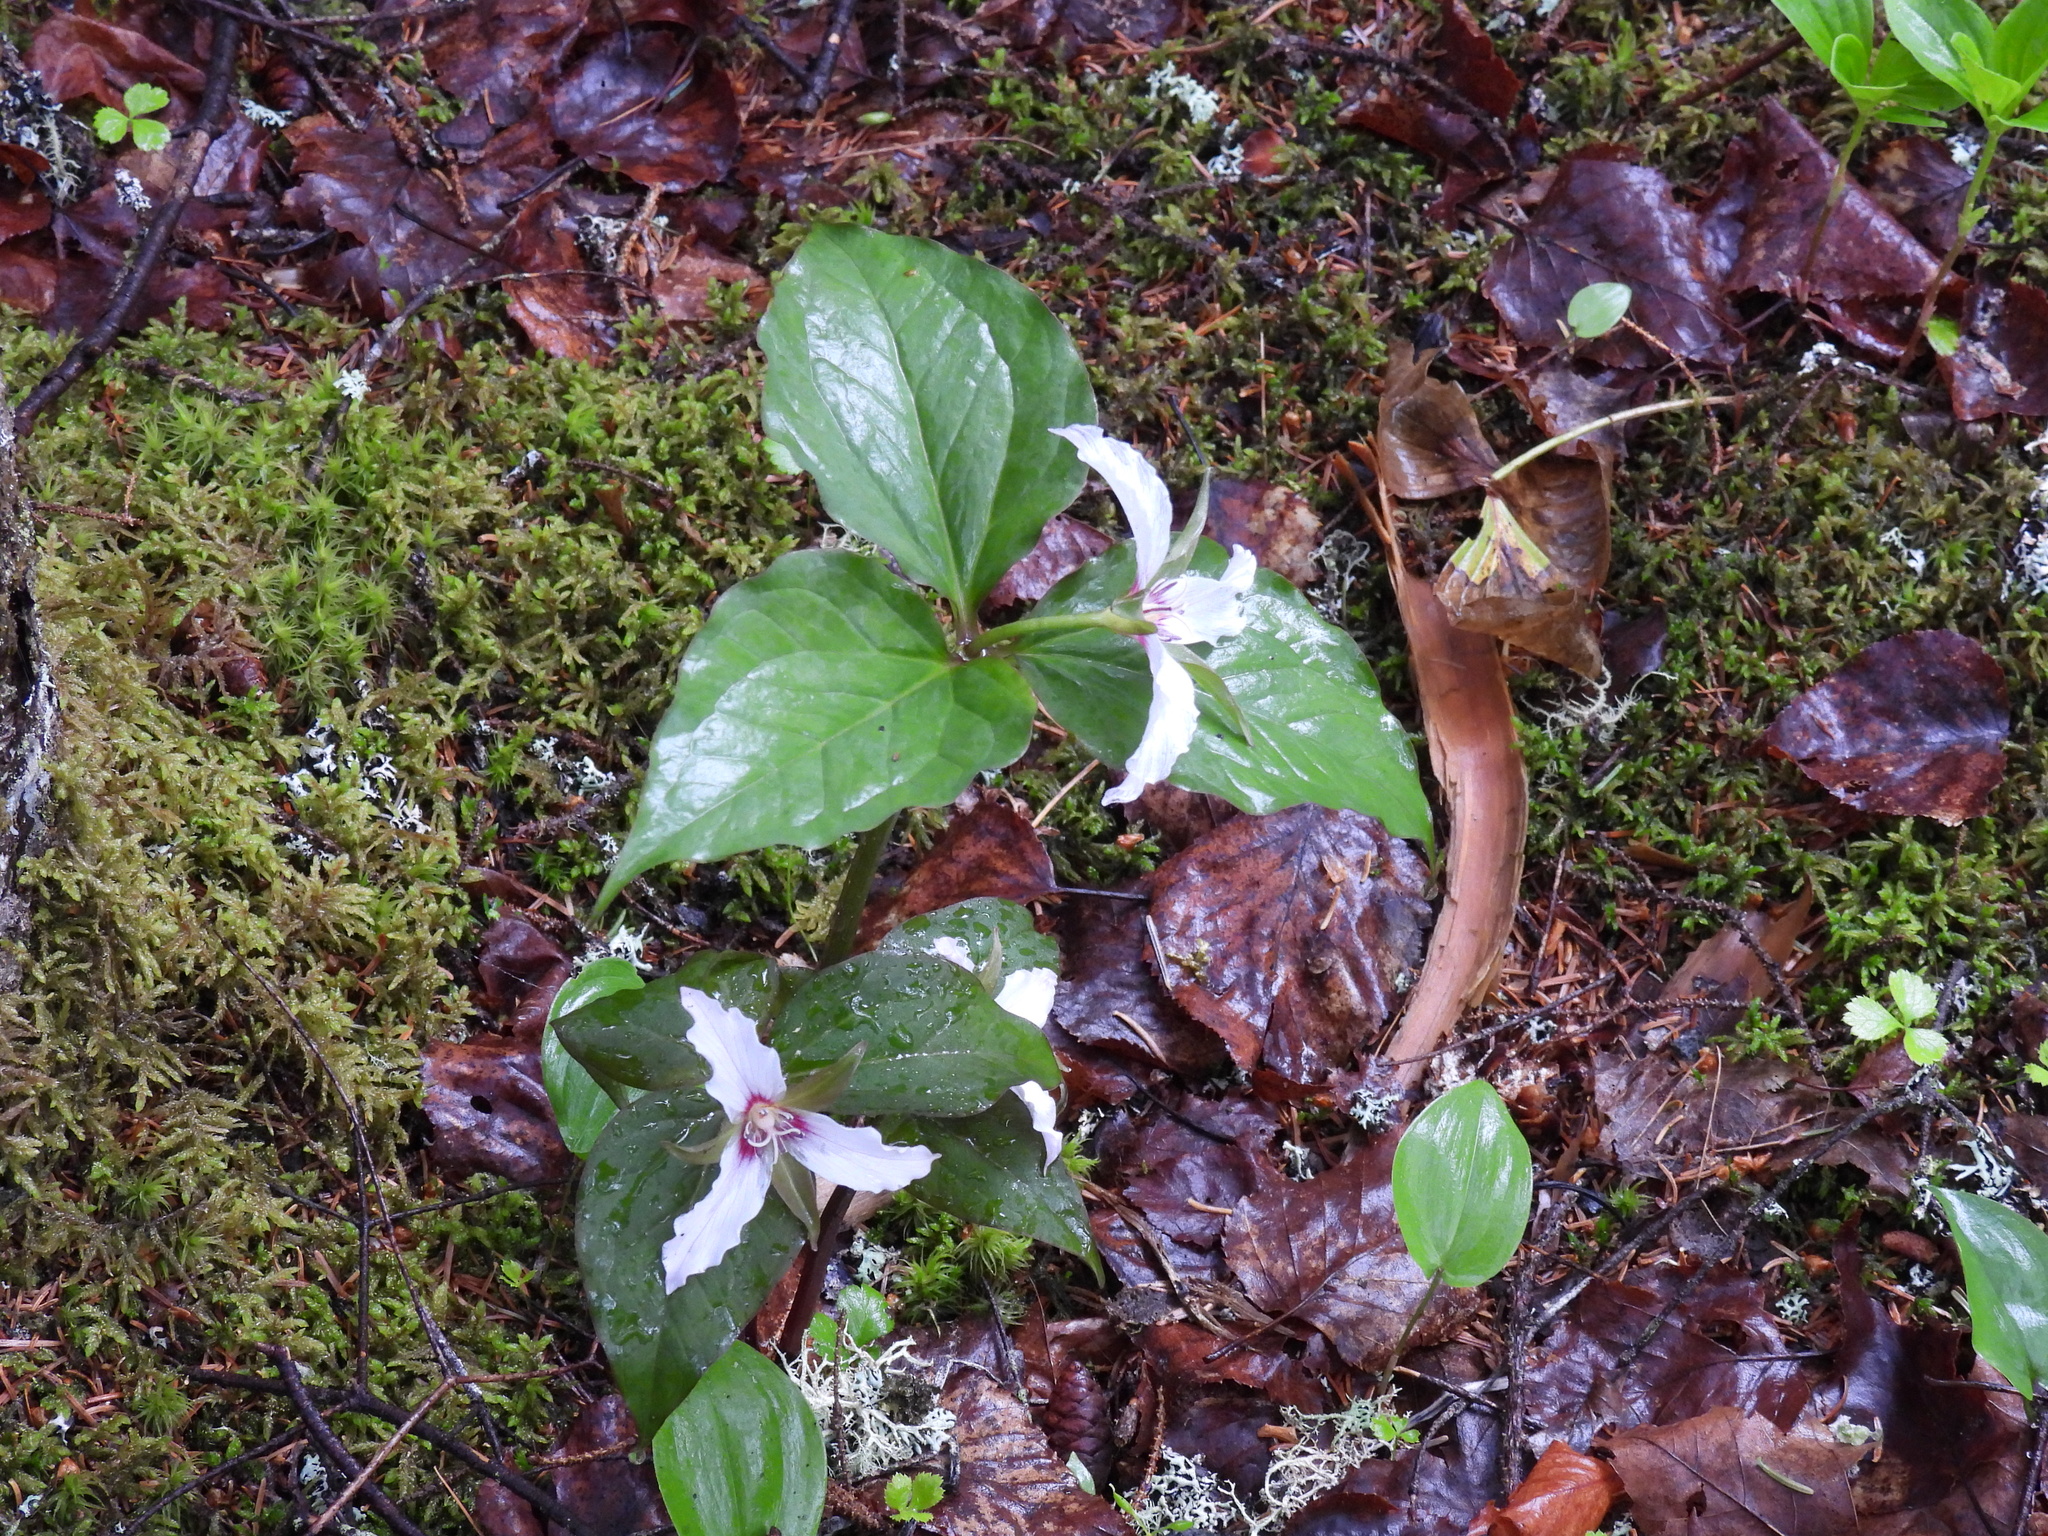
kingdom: Plantae
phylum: Tracheophyta
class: Liliopsida
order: Liliales
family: Melanthiaceae
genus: Trillium
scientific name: Trillium undulatum
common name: Paint trillium
